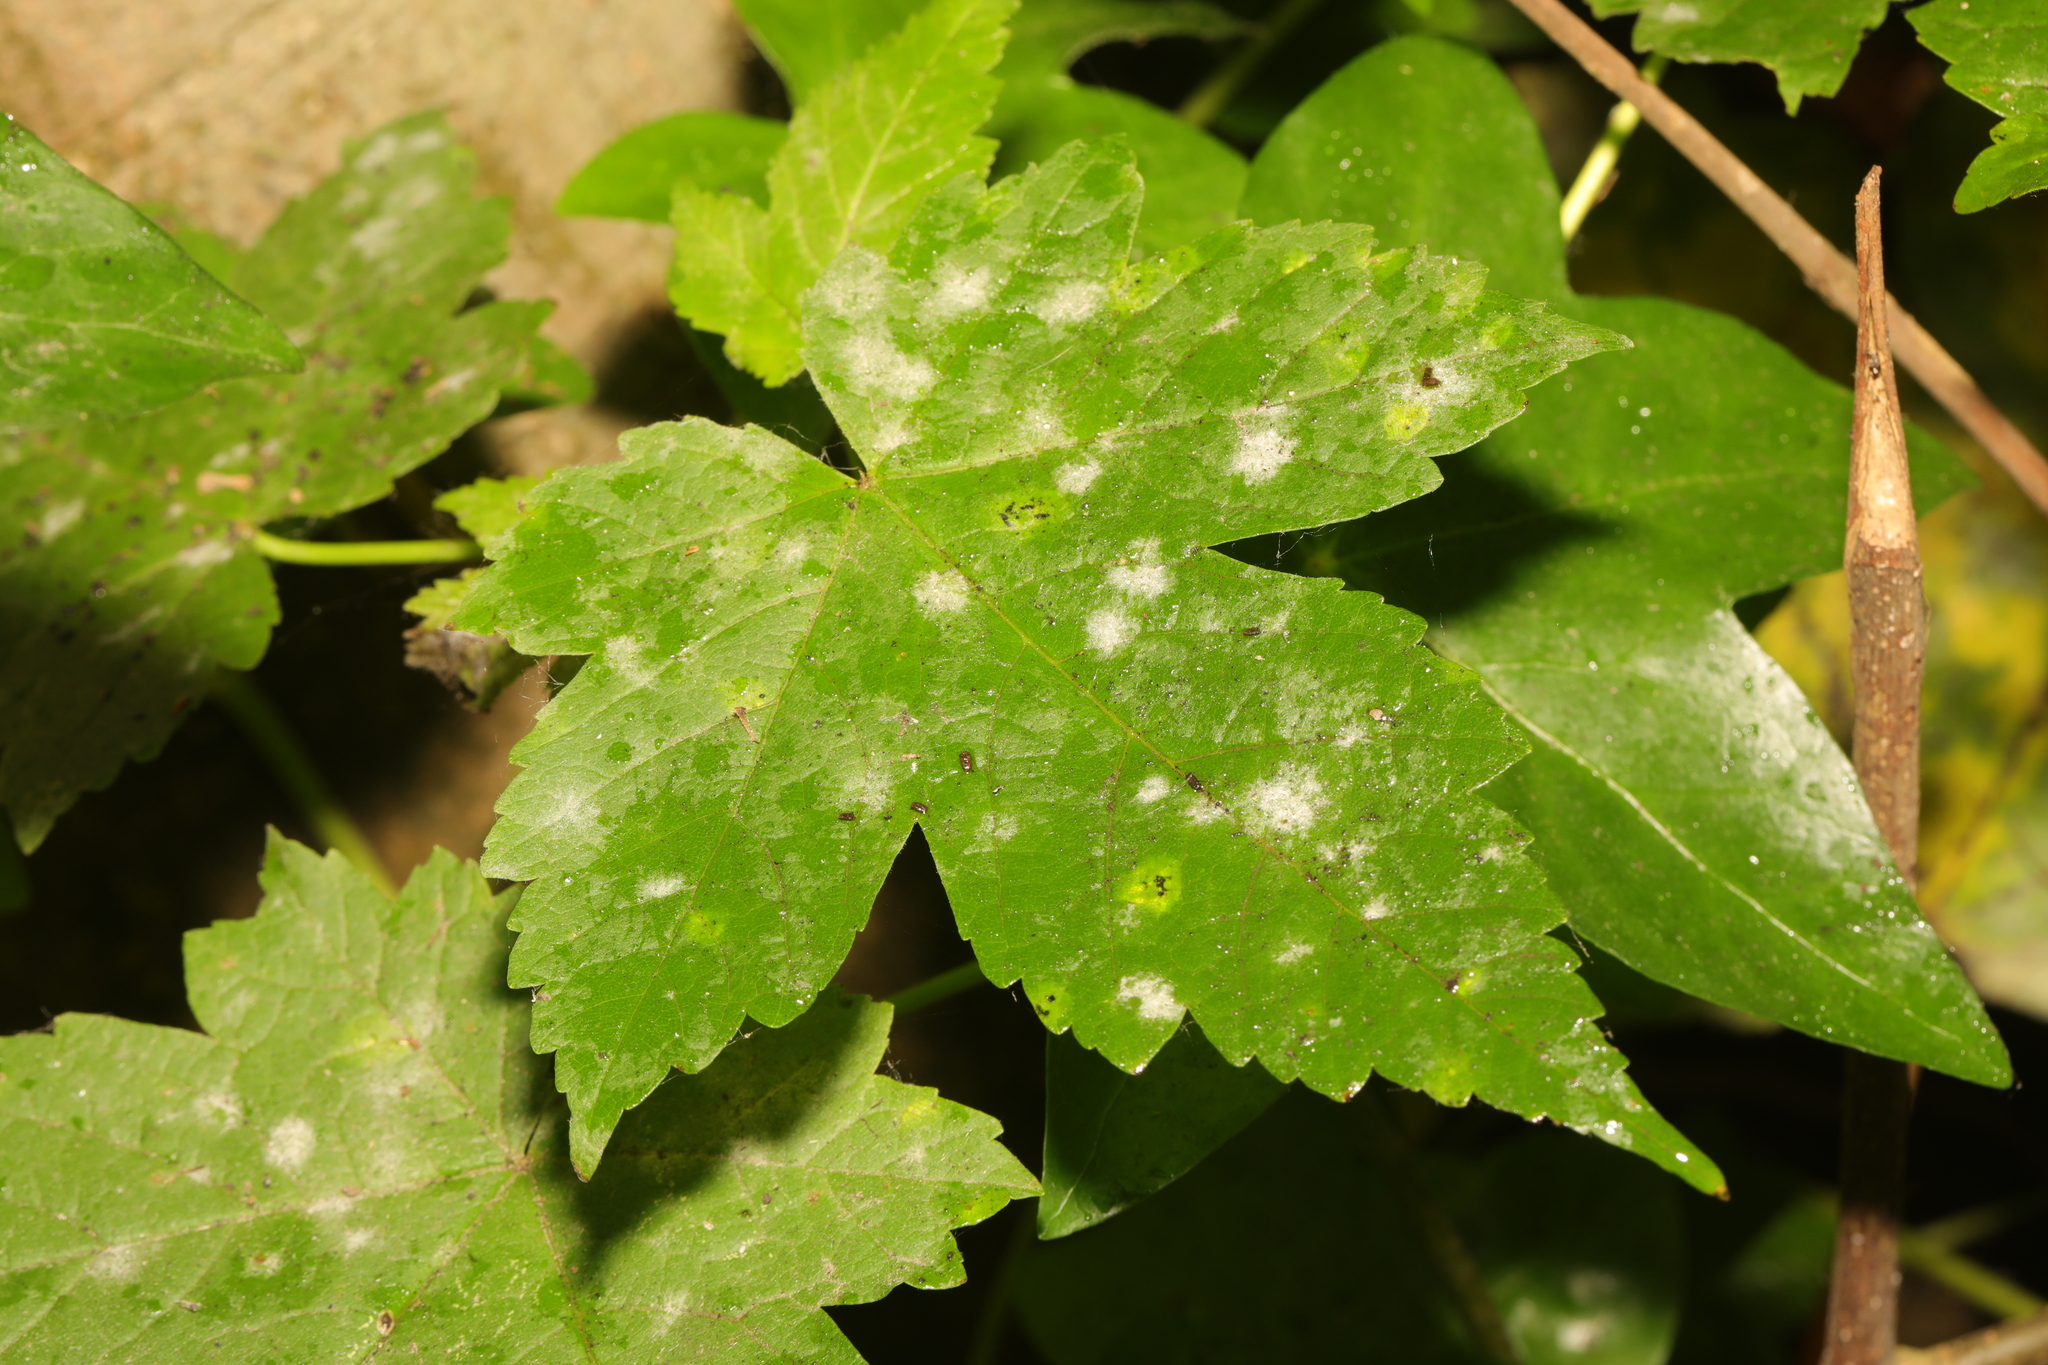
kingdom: Fungi
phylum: Ascomycota
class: Leotiomycetes
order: Helotiales
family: Erysiphaceae
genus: Sawadaea
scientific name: Sawadaea bicornis
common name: Maple mildew
